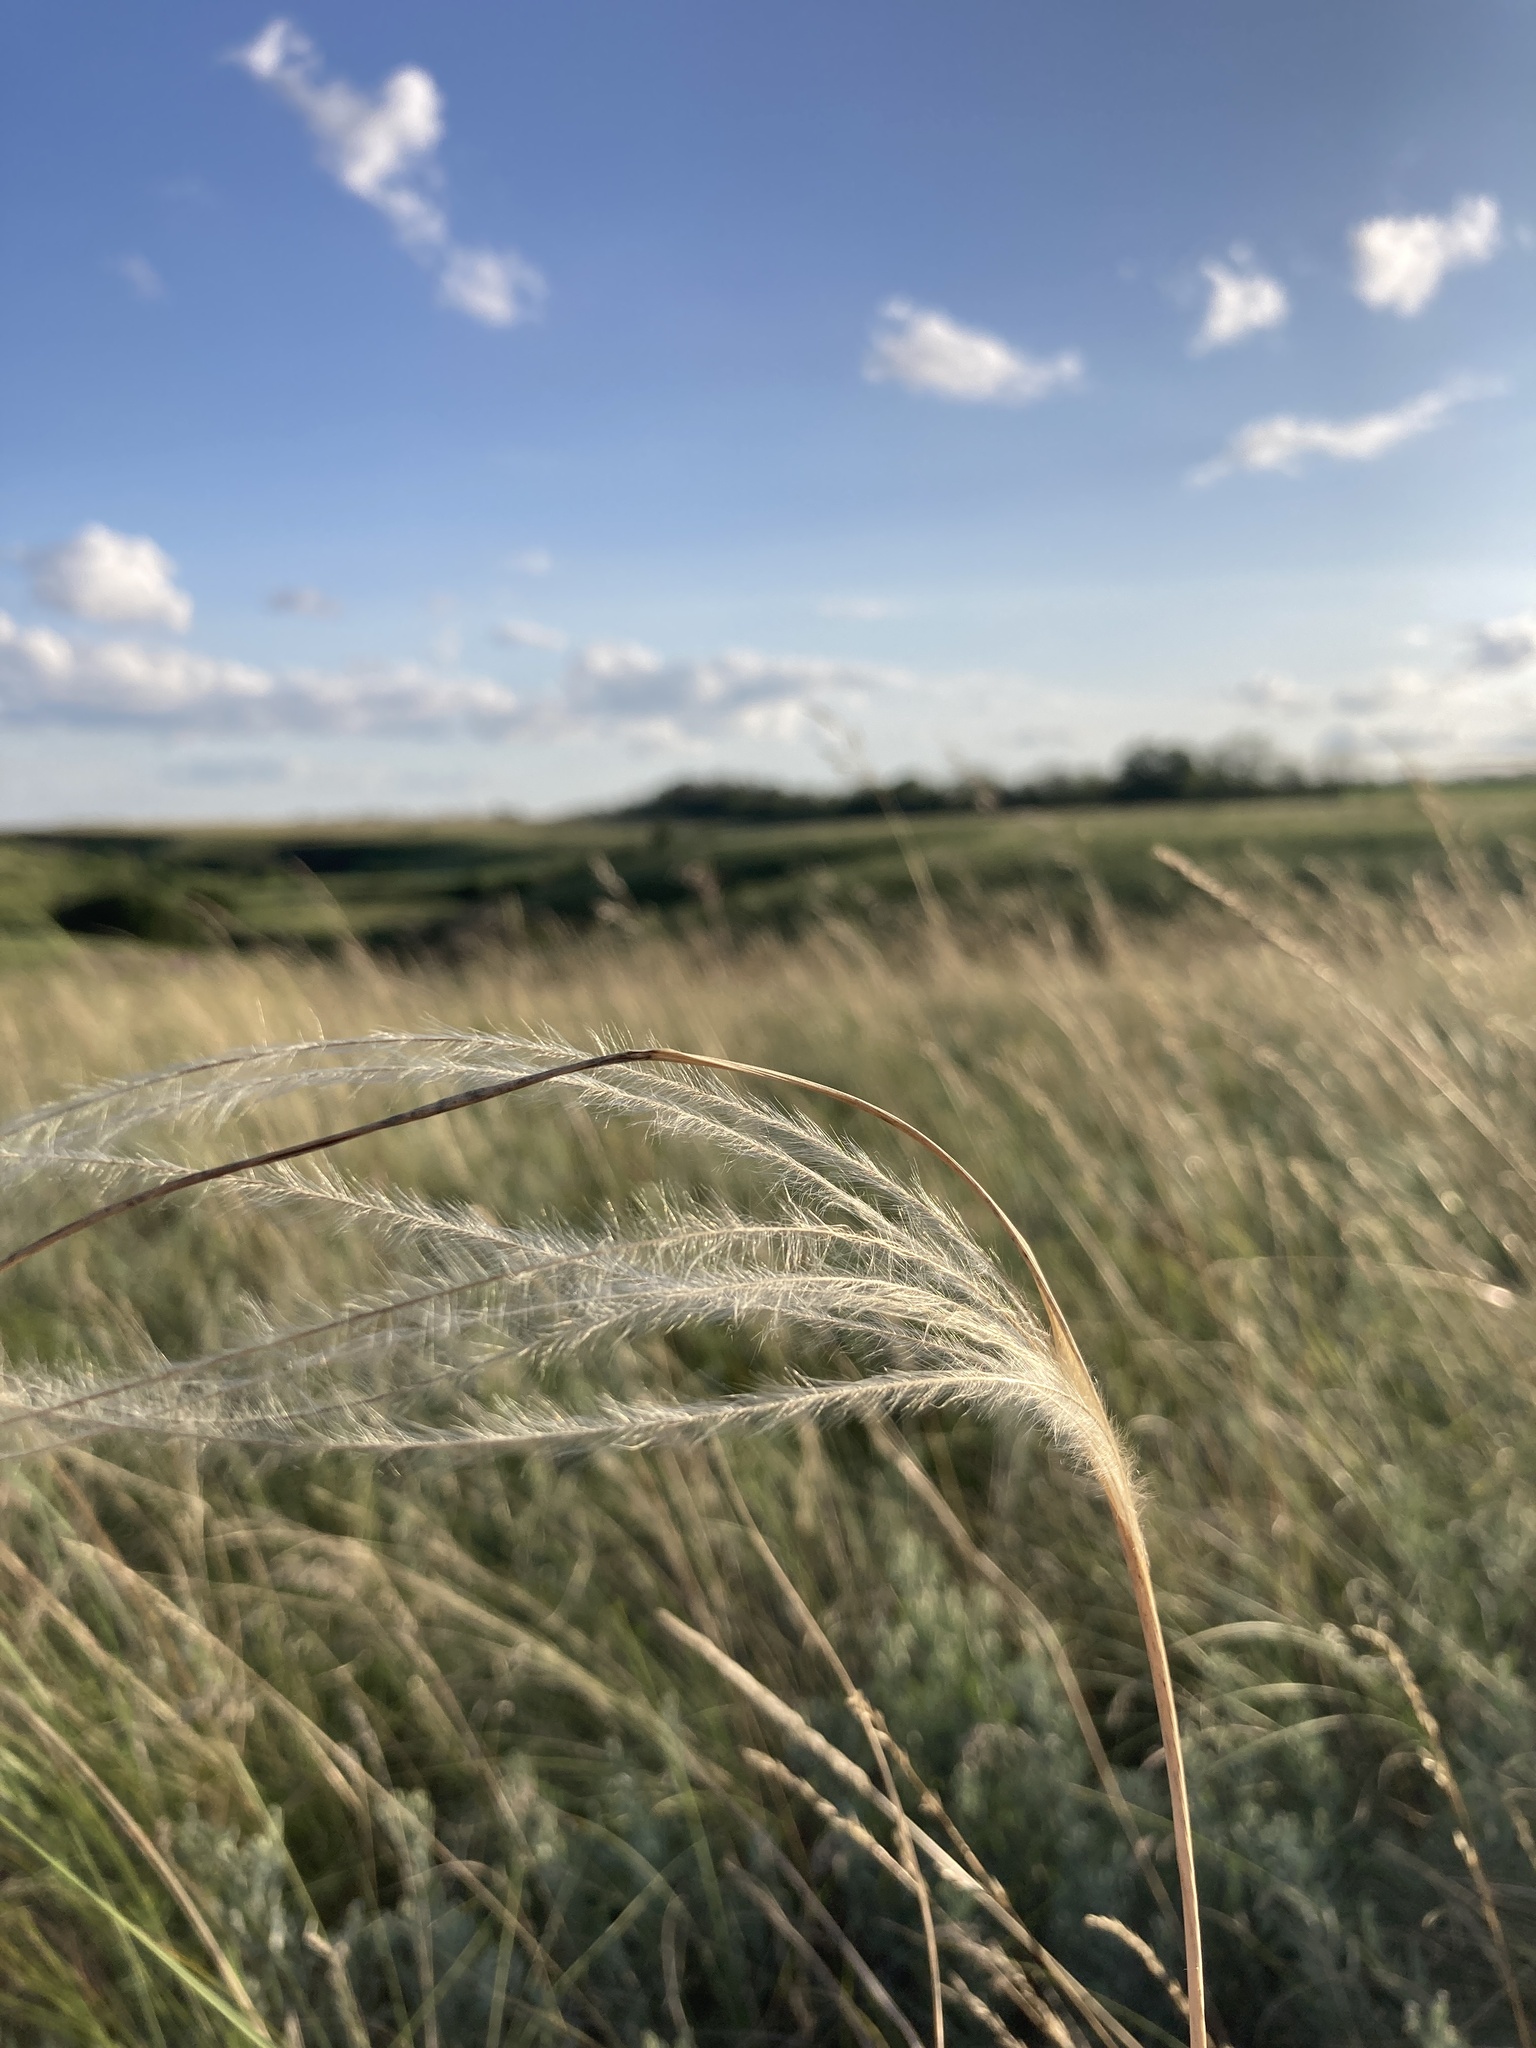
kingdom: Plantae
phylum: Tracheophyta
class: Liliopsida
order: Poales
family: Poaceae
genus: Stipa
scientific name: Stipa pennata
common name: European feather grass
